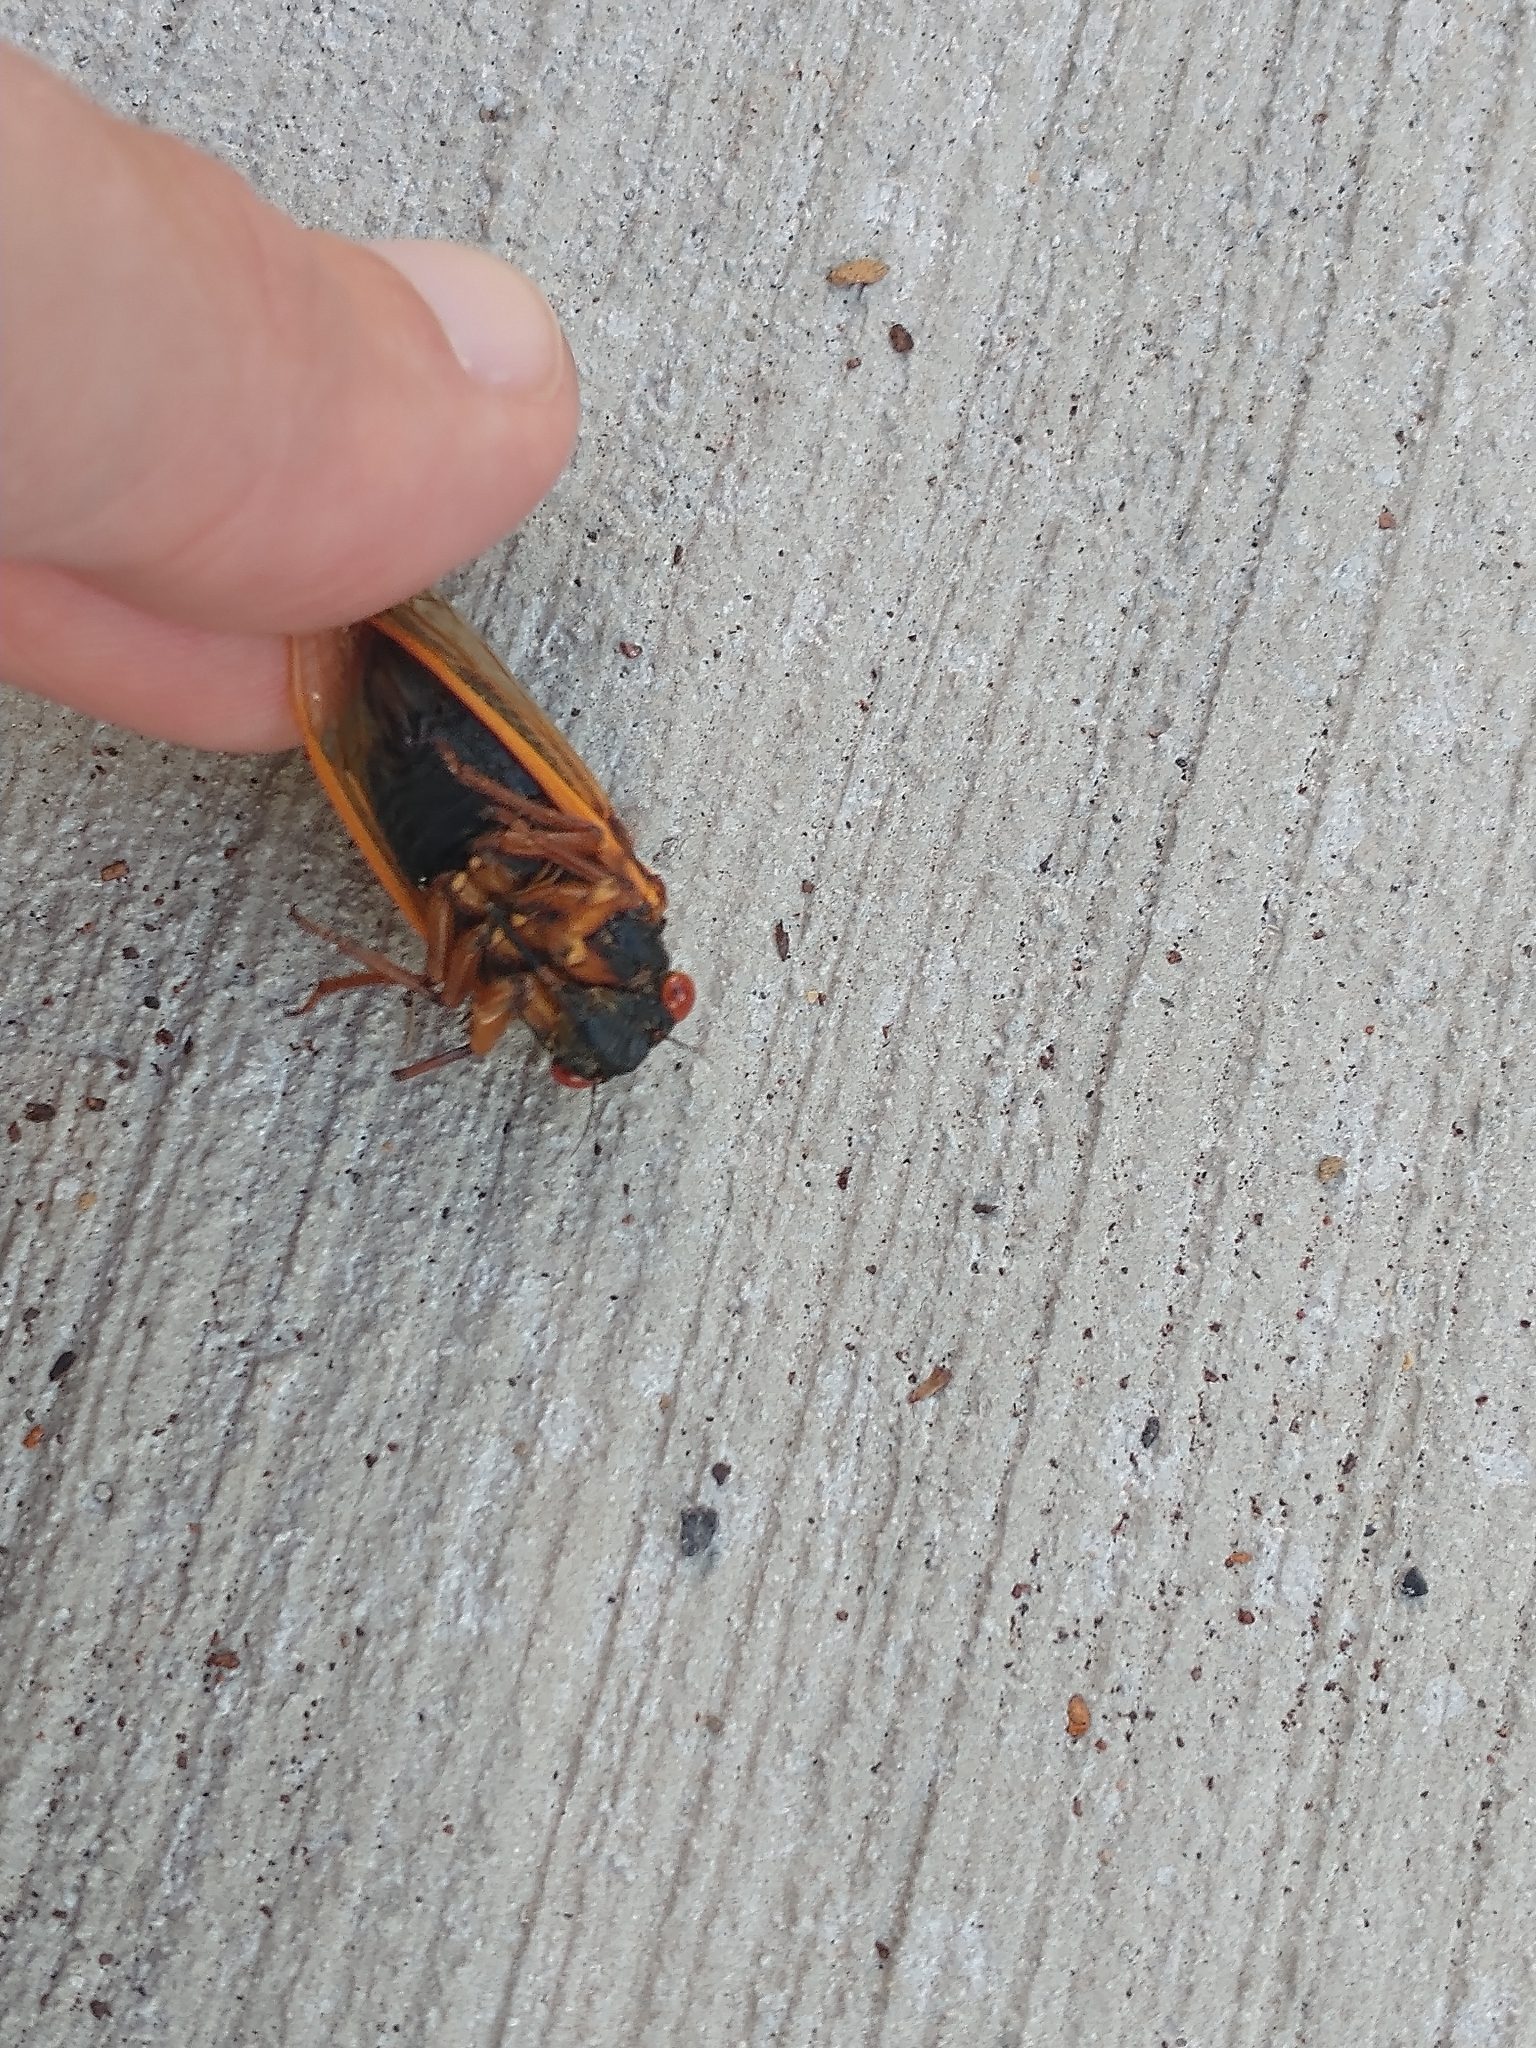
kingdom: Animalia
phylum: Arthropoda
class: Insecta
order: Hemiptera
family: Cicadidae
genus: Magicicada
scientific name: Magicicada cassini
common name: Cassin's 17-year cicada
